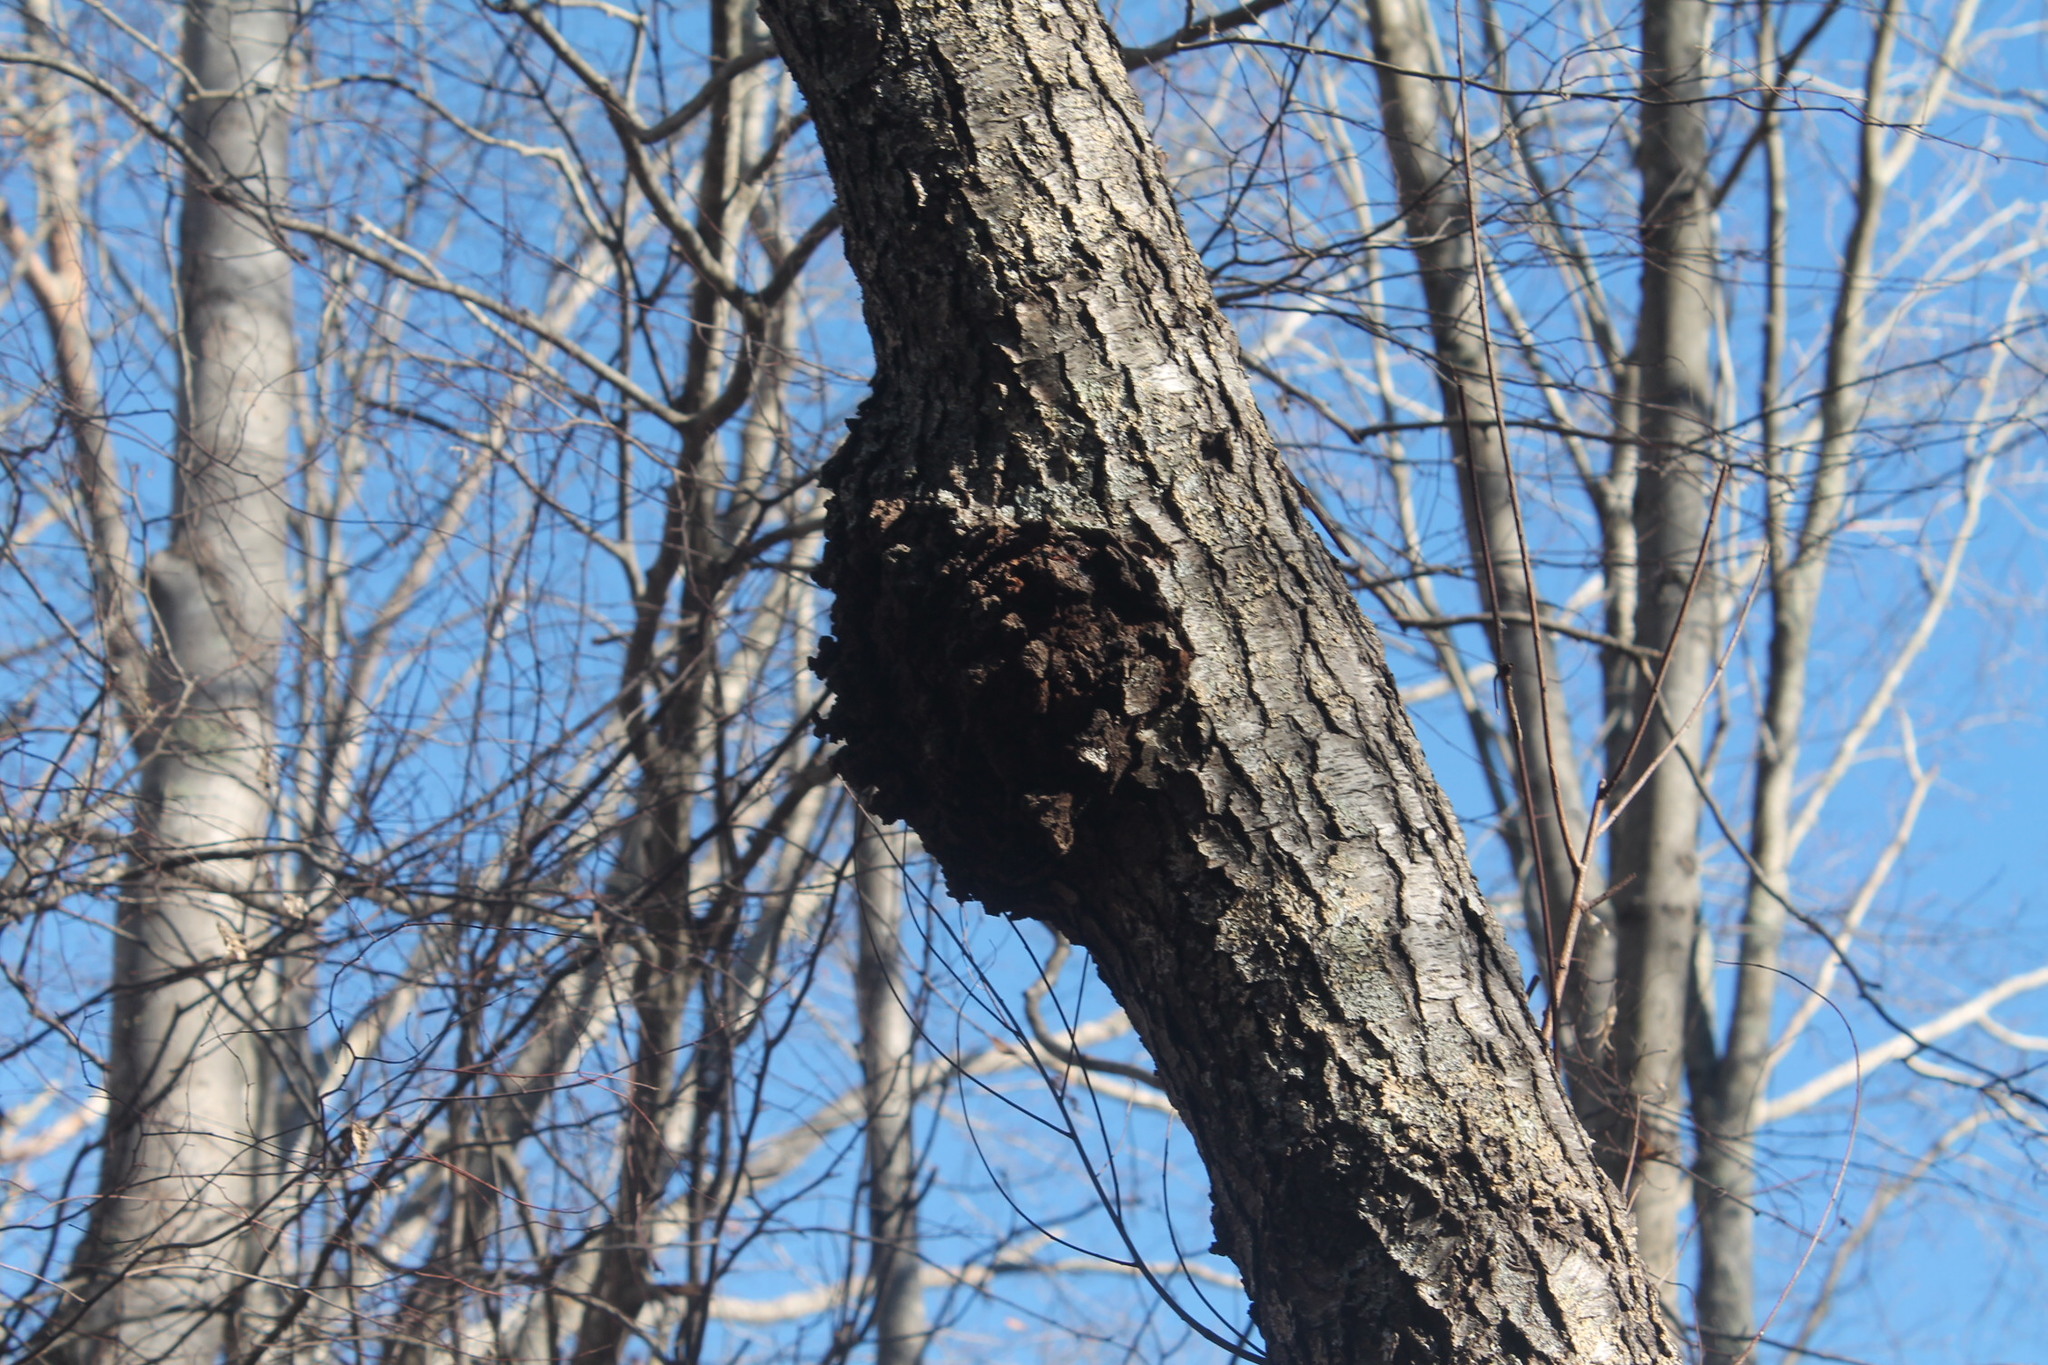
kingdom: Bacteria
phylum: Proteobacteria
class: Alphaproteobacteria
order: Rhizobiales
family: Rhizobiaceae
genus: Rhizobium
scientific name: Rhizobium Agrobacterium radiobacter
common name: Bacterial crown gall
